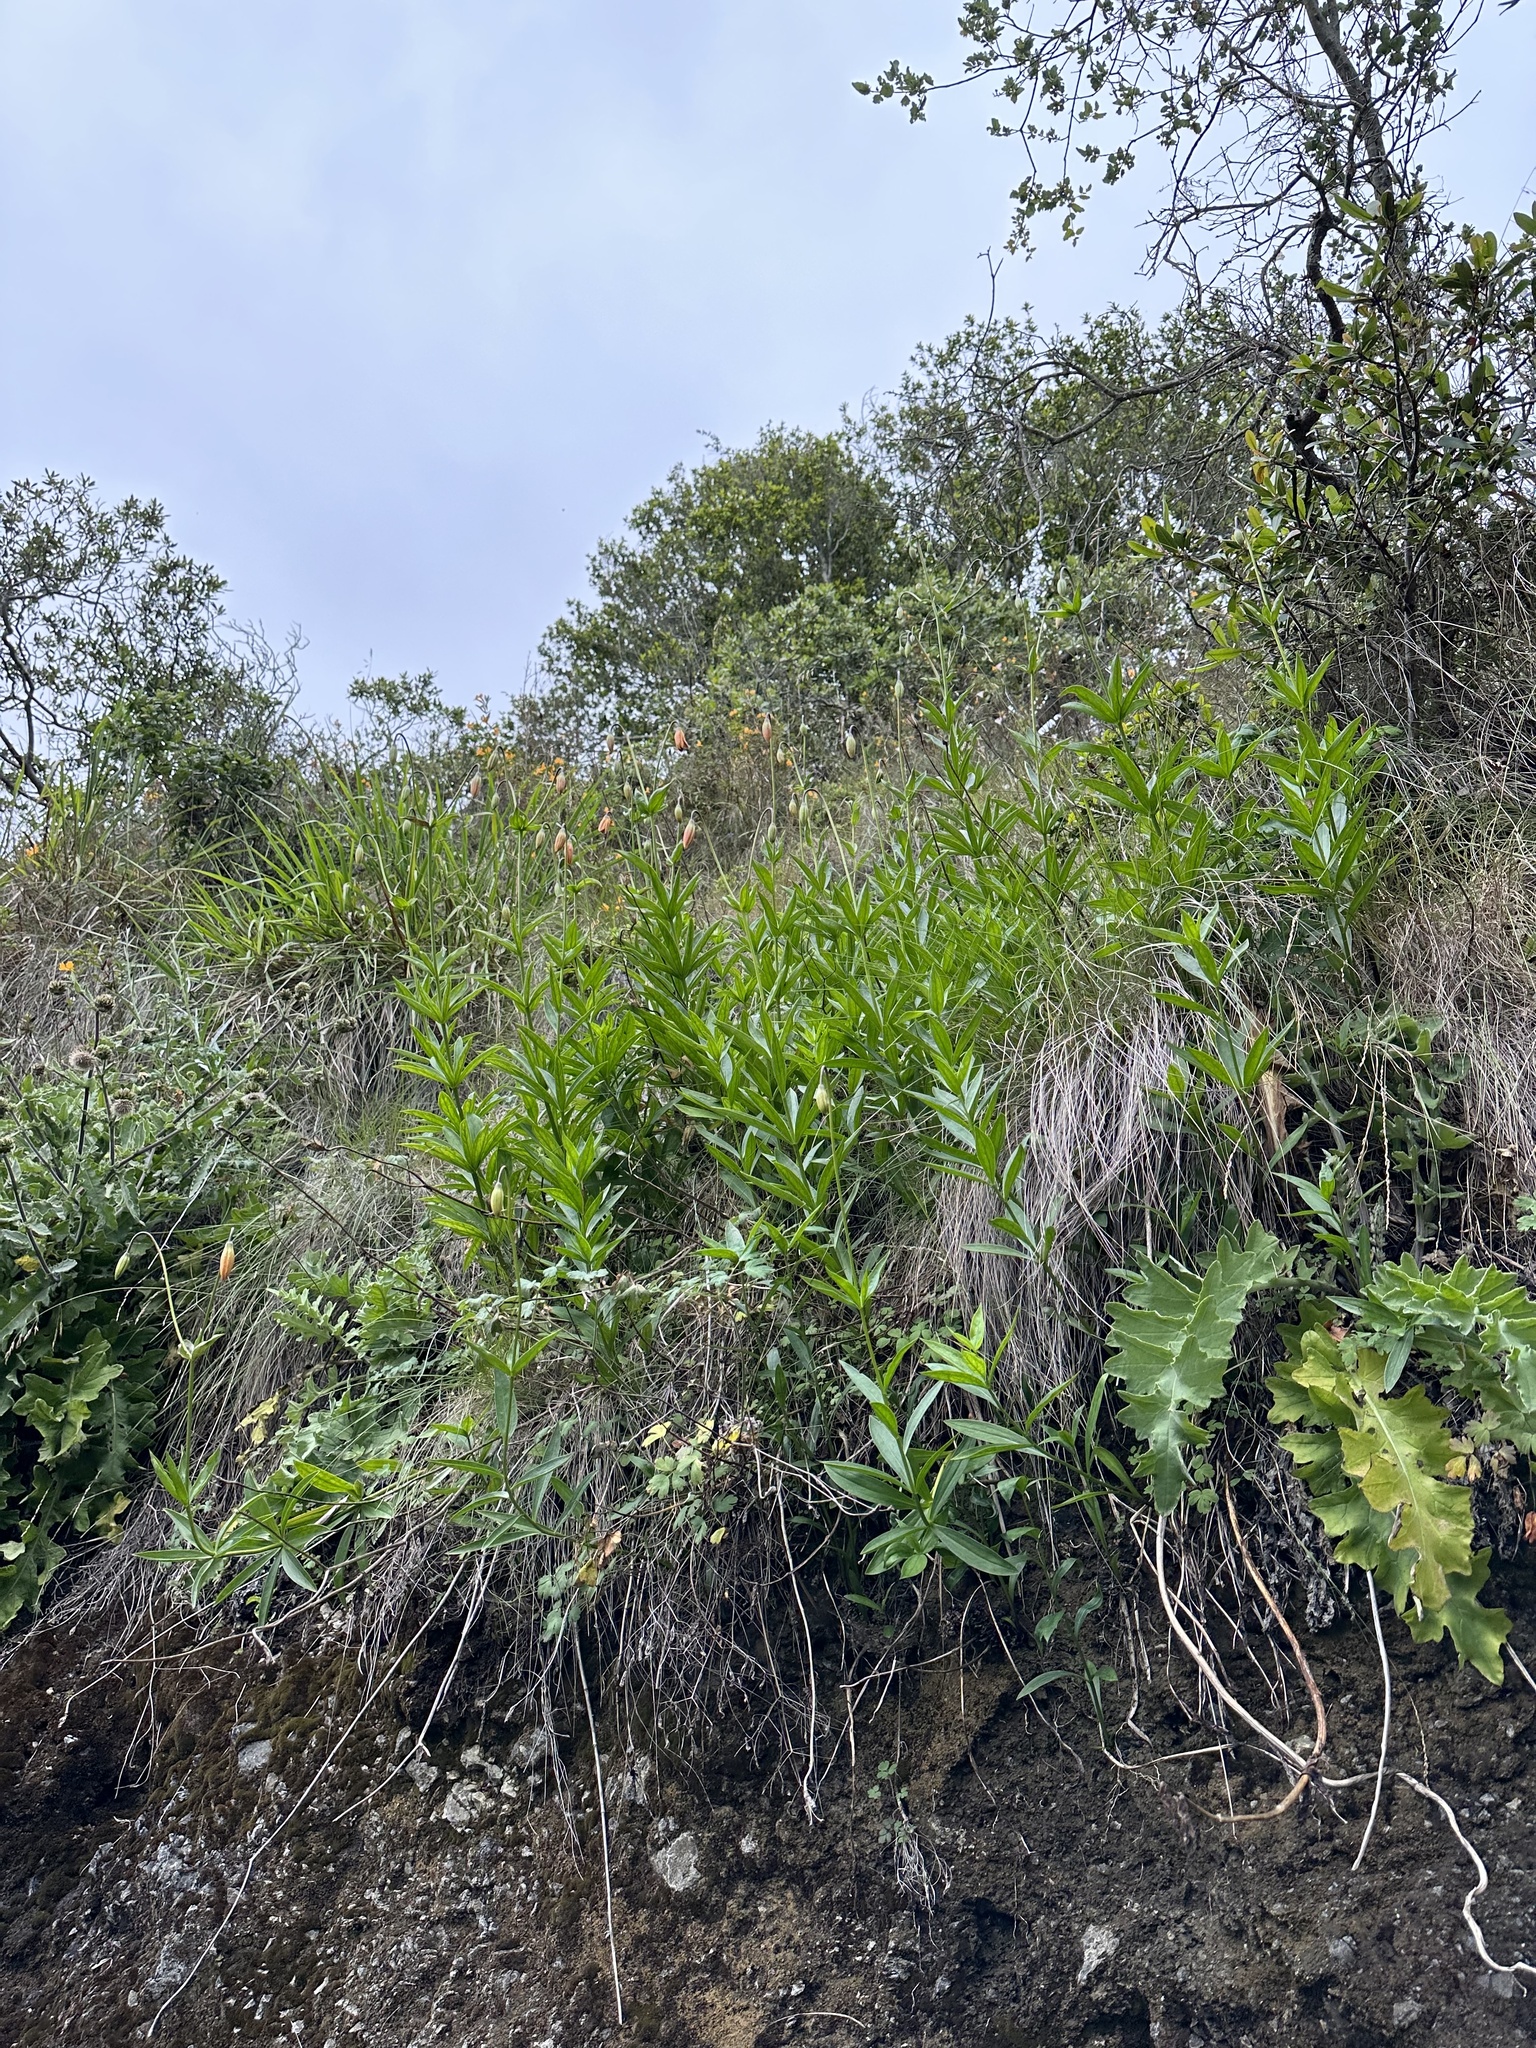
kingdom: Plantae
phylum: Tracheophyta
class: Liliopsida
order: Liliales
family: Liliaceae
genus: Lilium
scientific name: Lilium pardalinum
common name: Panther lily
